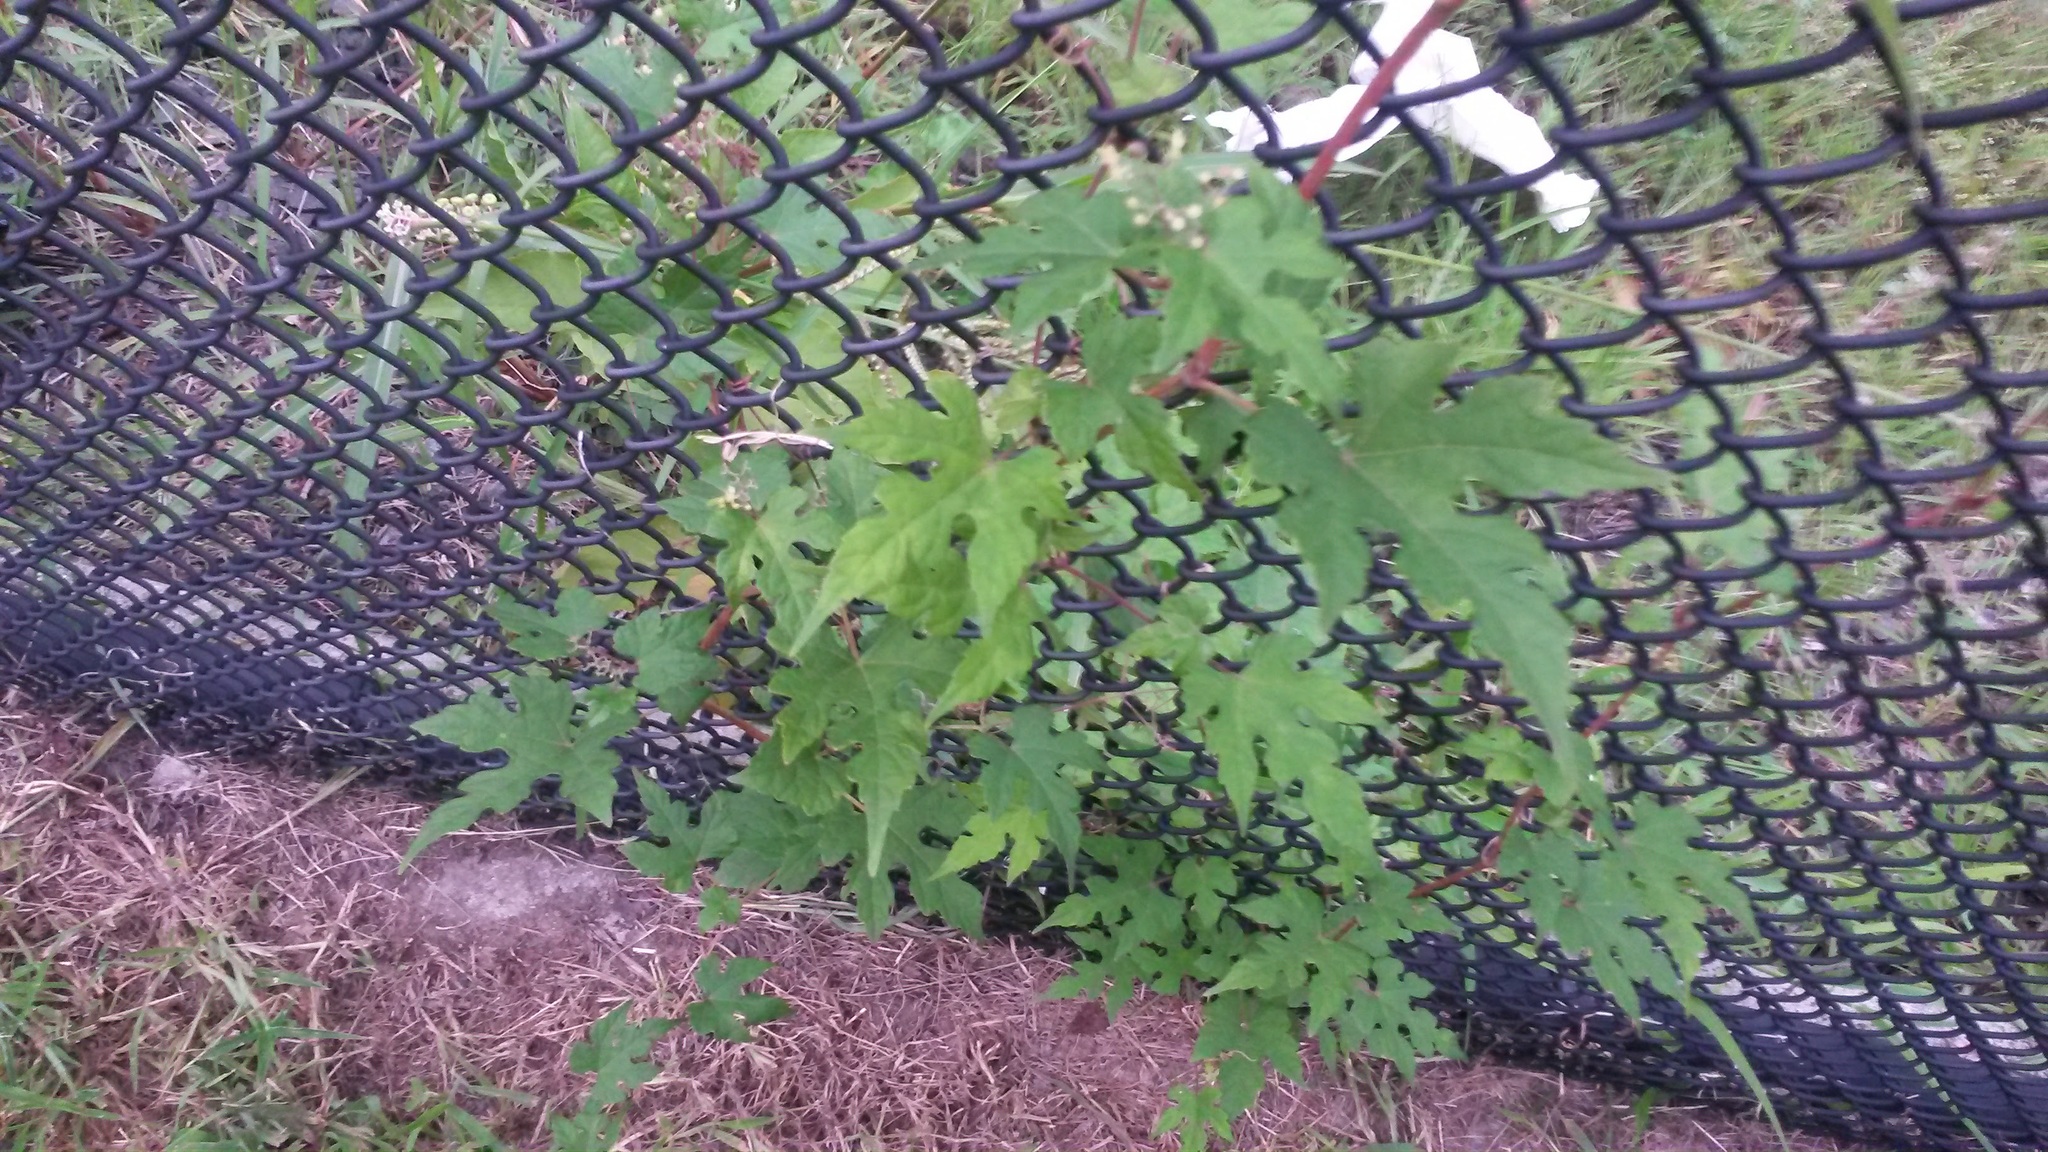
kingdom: Plantae
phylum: Tracheophyta
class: Magnoliopsida
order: Vitales
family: Vitaceae
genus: Ampelopsis
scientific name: Ampelopsis glandulosa
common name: Amur peppervine
